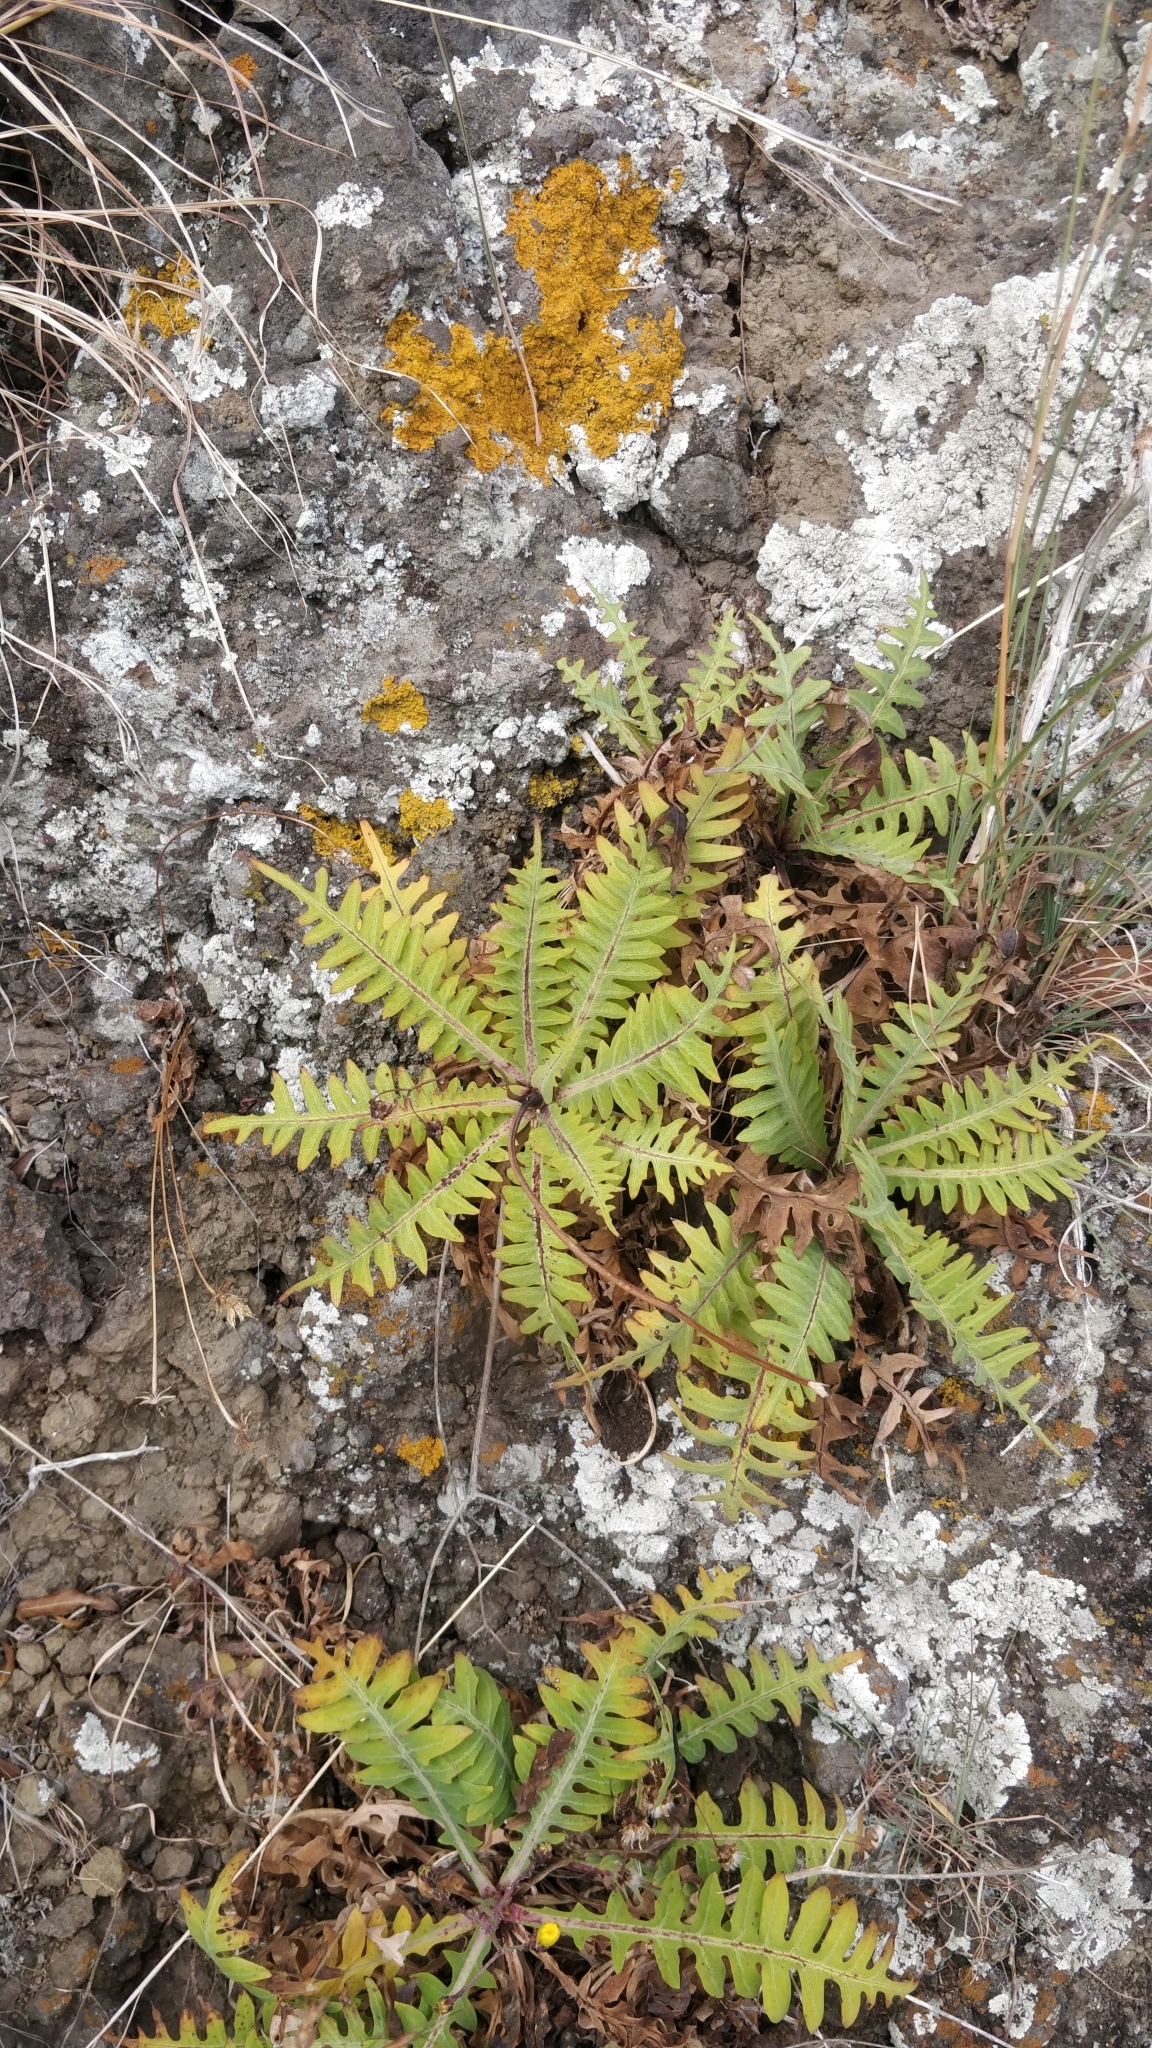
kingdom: Plantae
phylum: Tracheophyta
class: Magnoliopsida
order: Asterales
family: Asteraceae
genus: Sonchus
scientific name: Sonchus ustulatus
